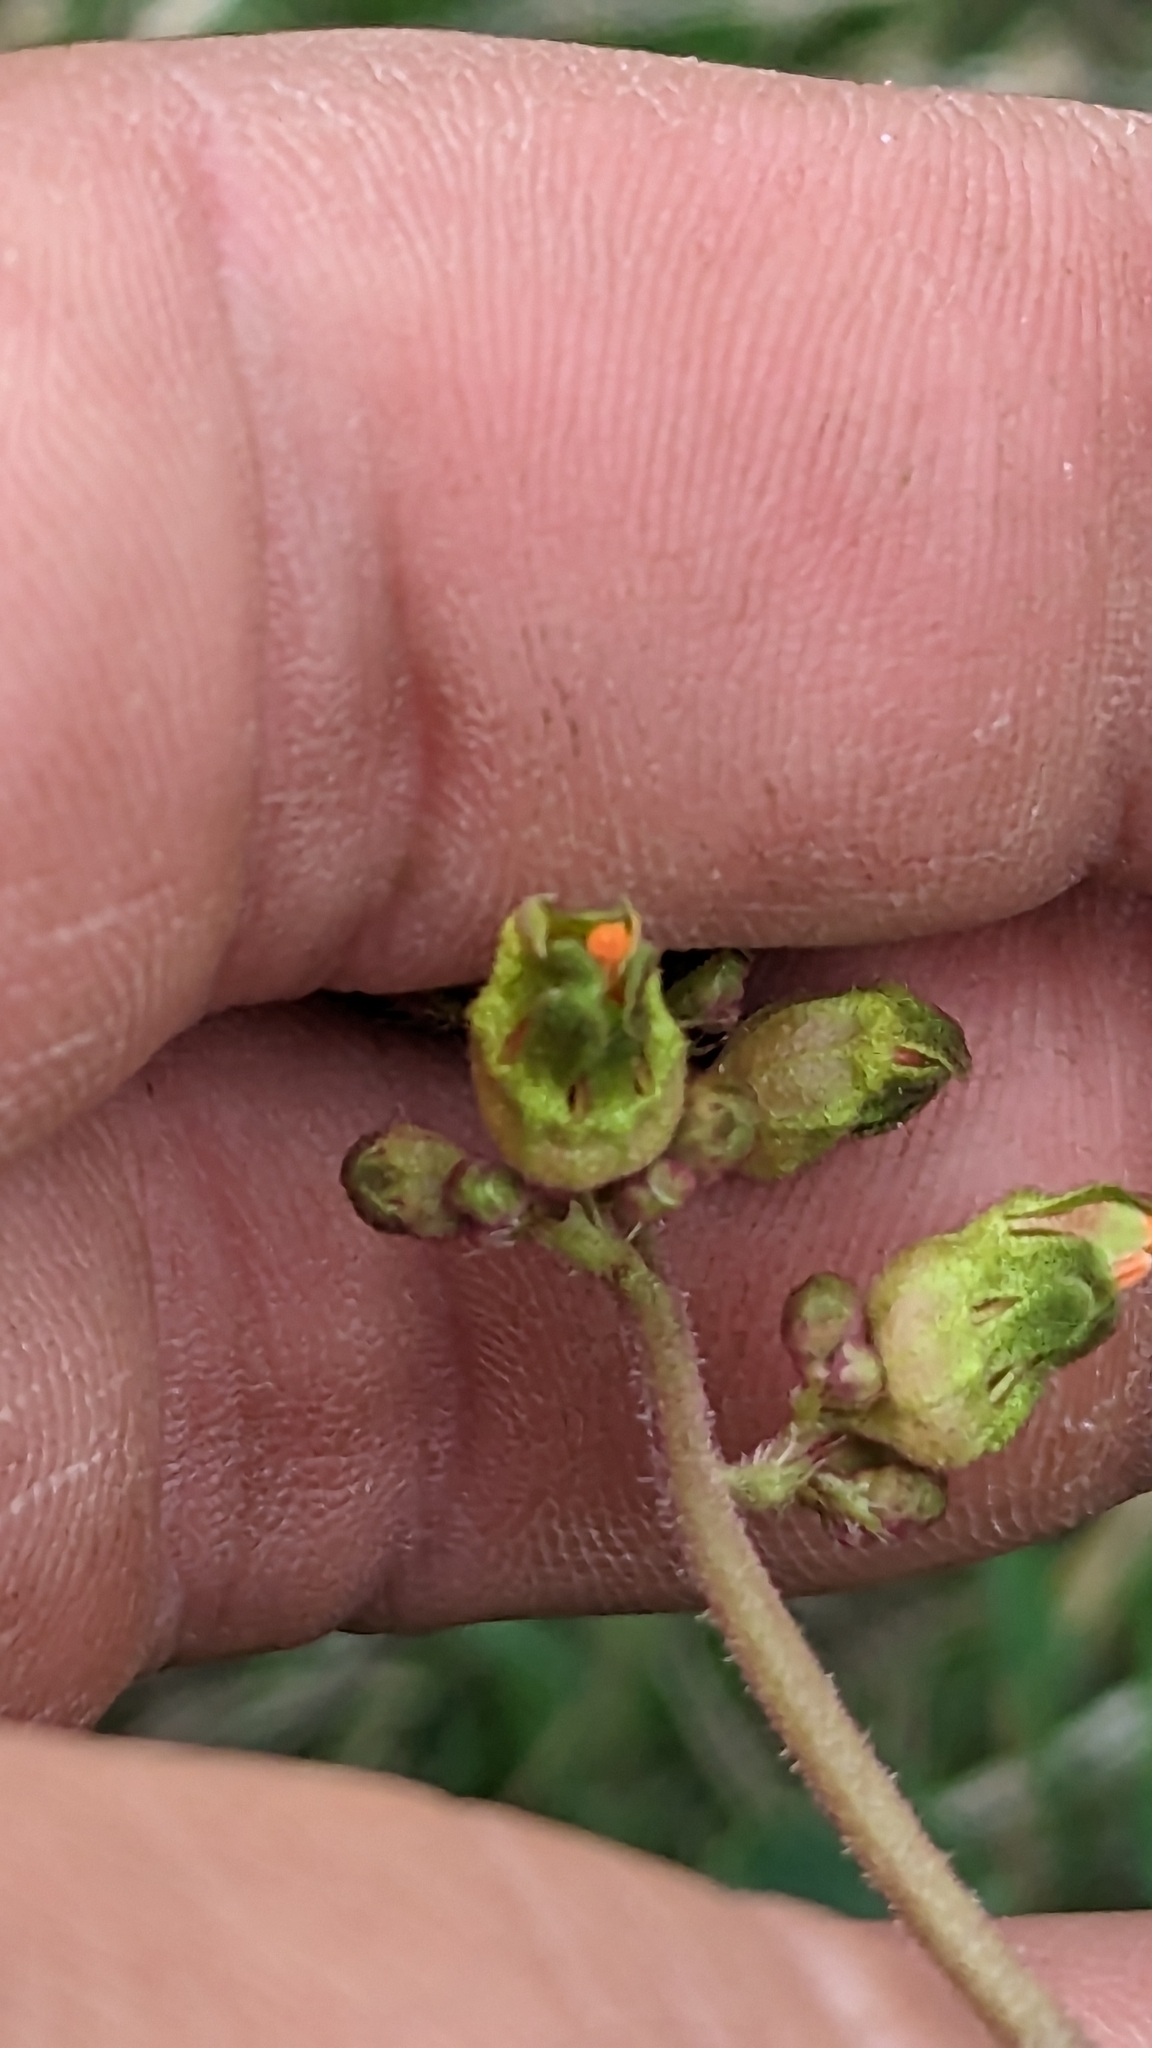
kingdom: Plantae
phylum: Tracheophyta
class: Magnoliopsida
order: Saxifragales
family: Saxifragaceae
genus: Heuchera
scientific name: Heuchera richardsonii
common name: Richardson's alumroot
